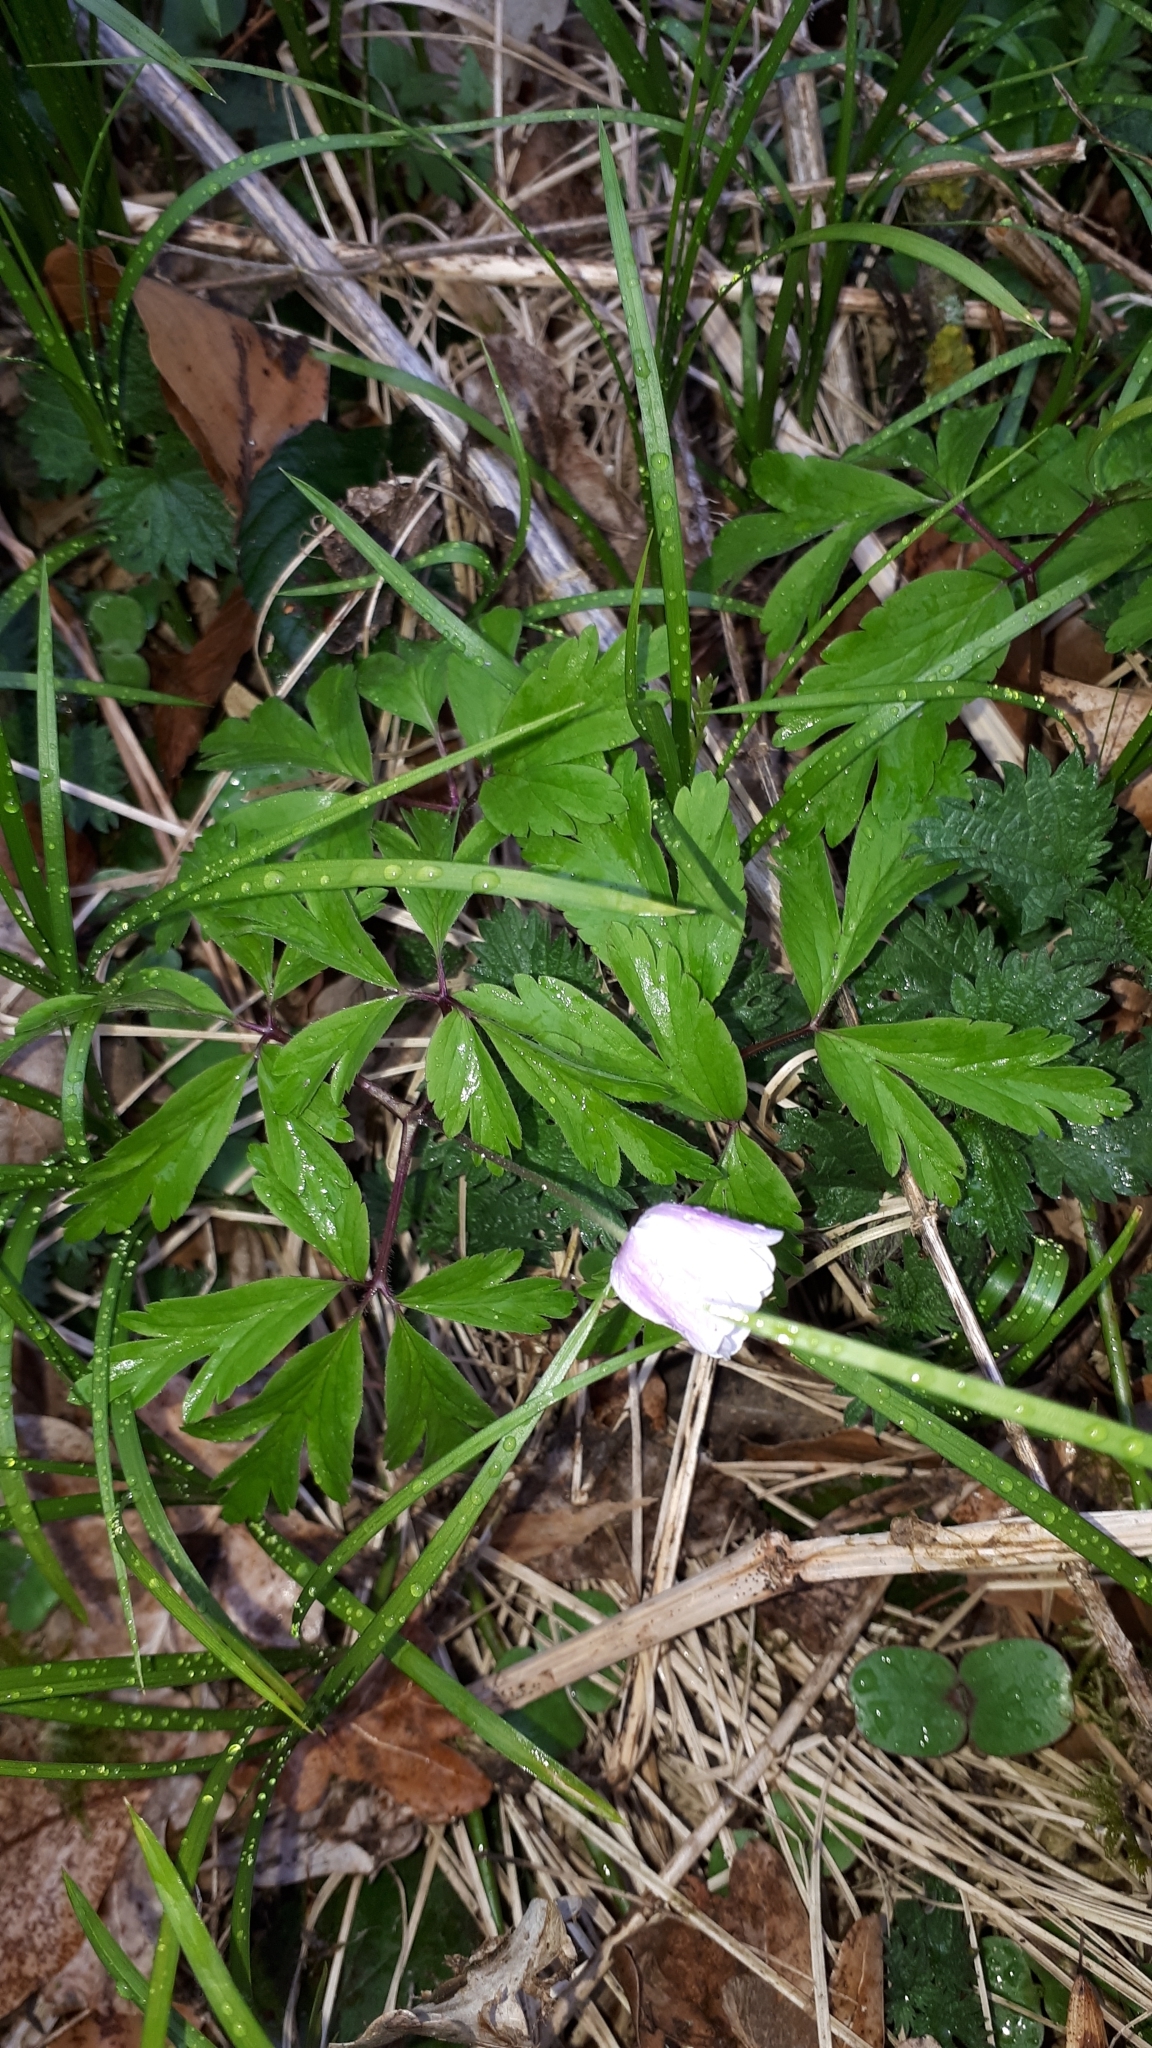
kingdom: Plantae
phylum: Tracheophyta
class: Magnoliopsida
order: Ranunculales
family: Ranunculaceae
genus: Anemone
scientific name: Anemone nemorosa
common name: Wood anemone
